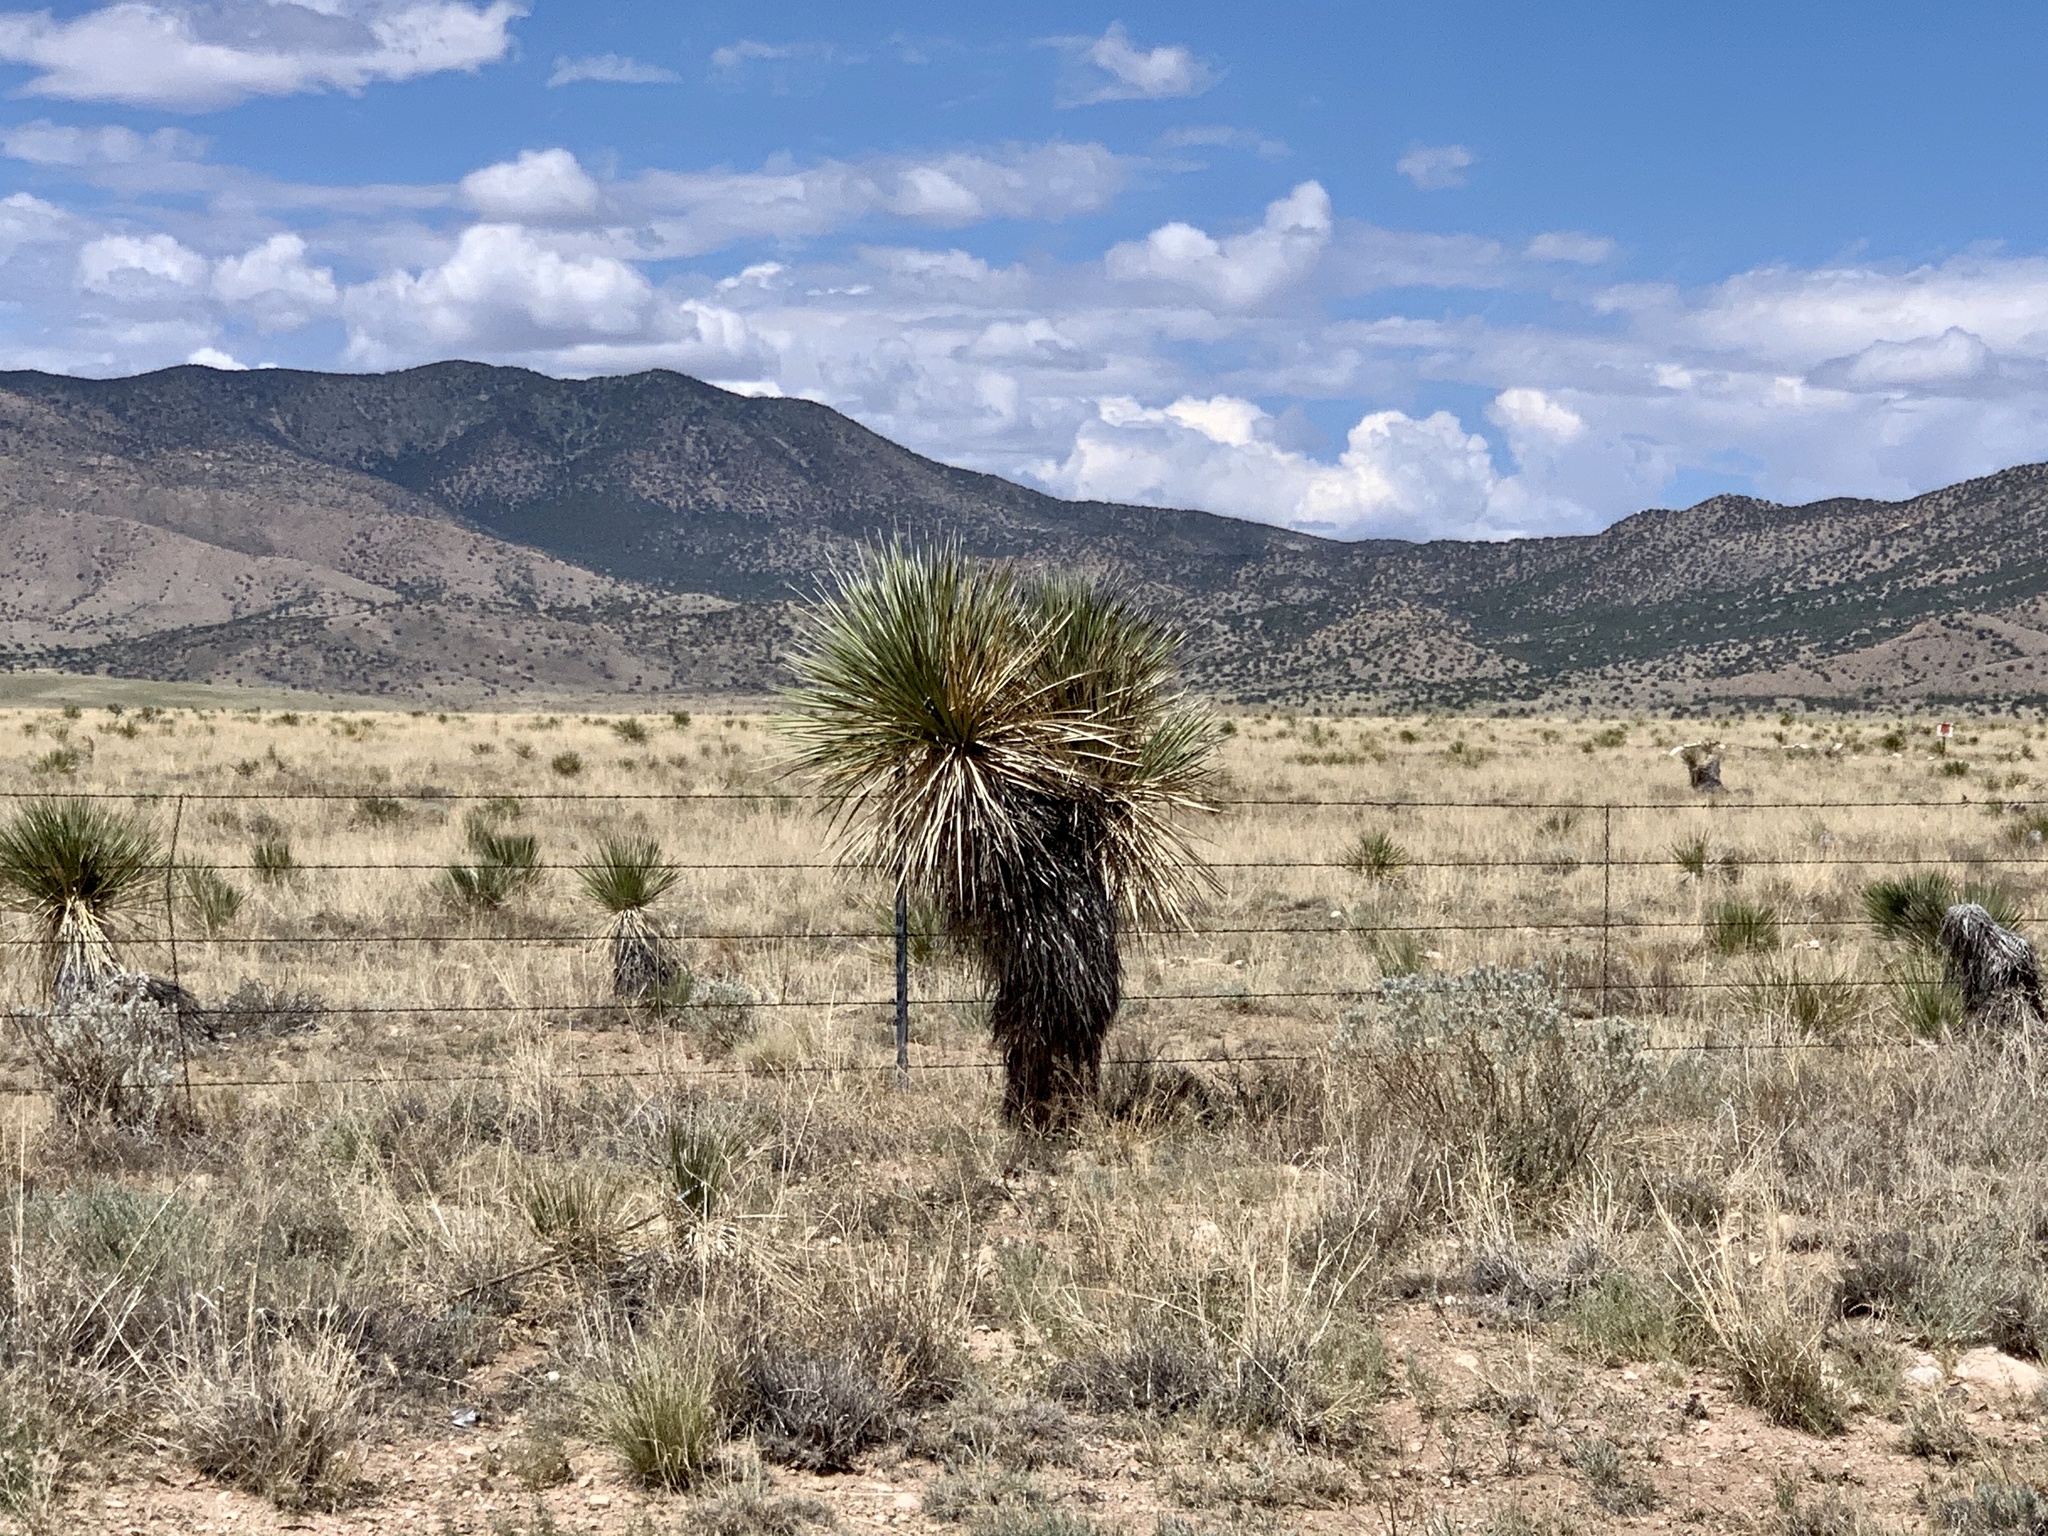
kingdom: Plantae
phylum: Tracheophyta
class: Liliopsida
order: Asparagales
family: Asparagaceae
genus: Yucca
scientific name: Yucca elata
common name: Palmella
